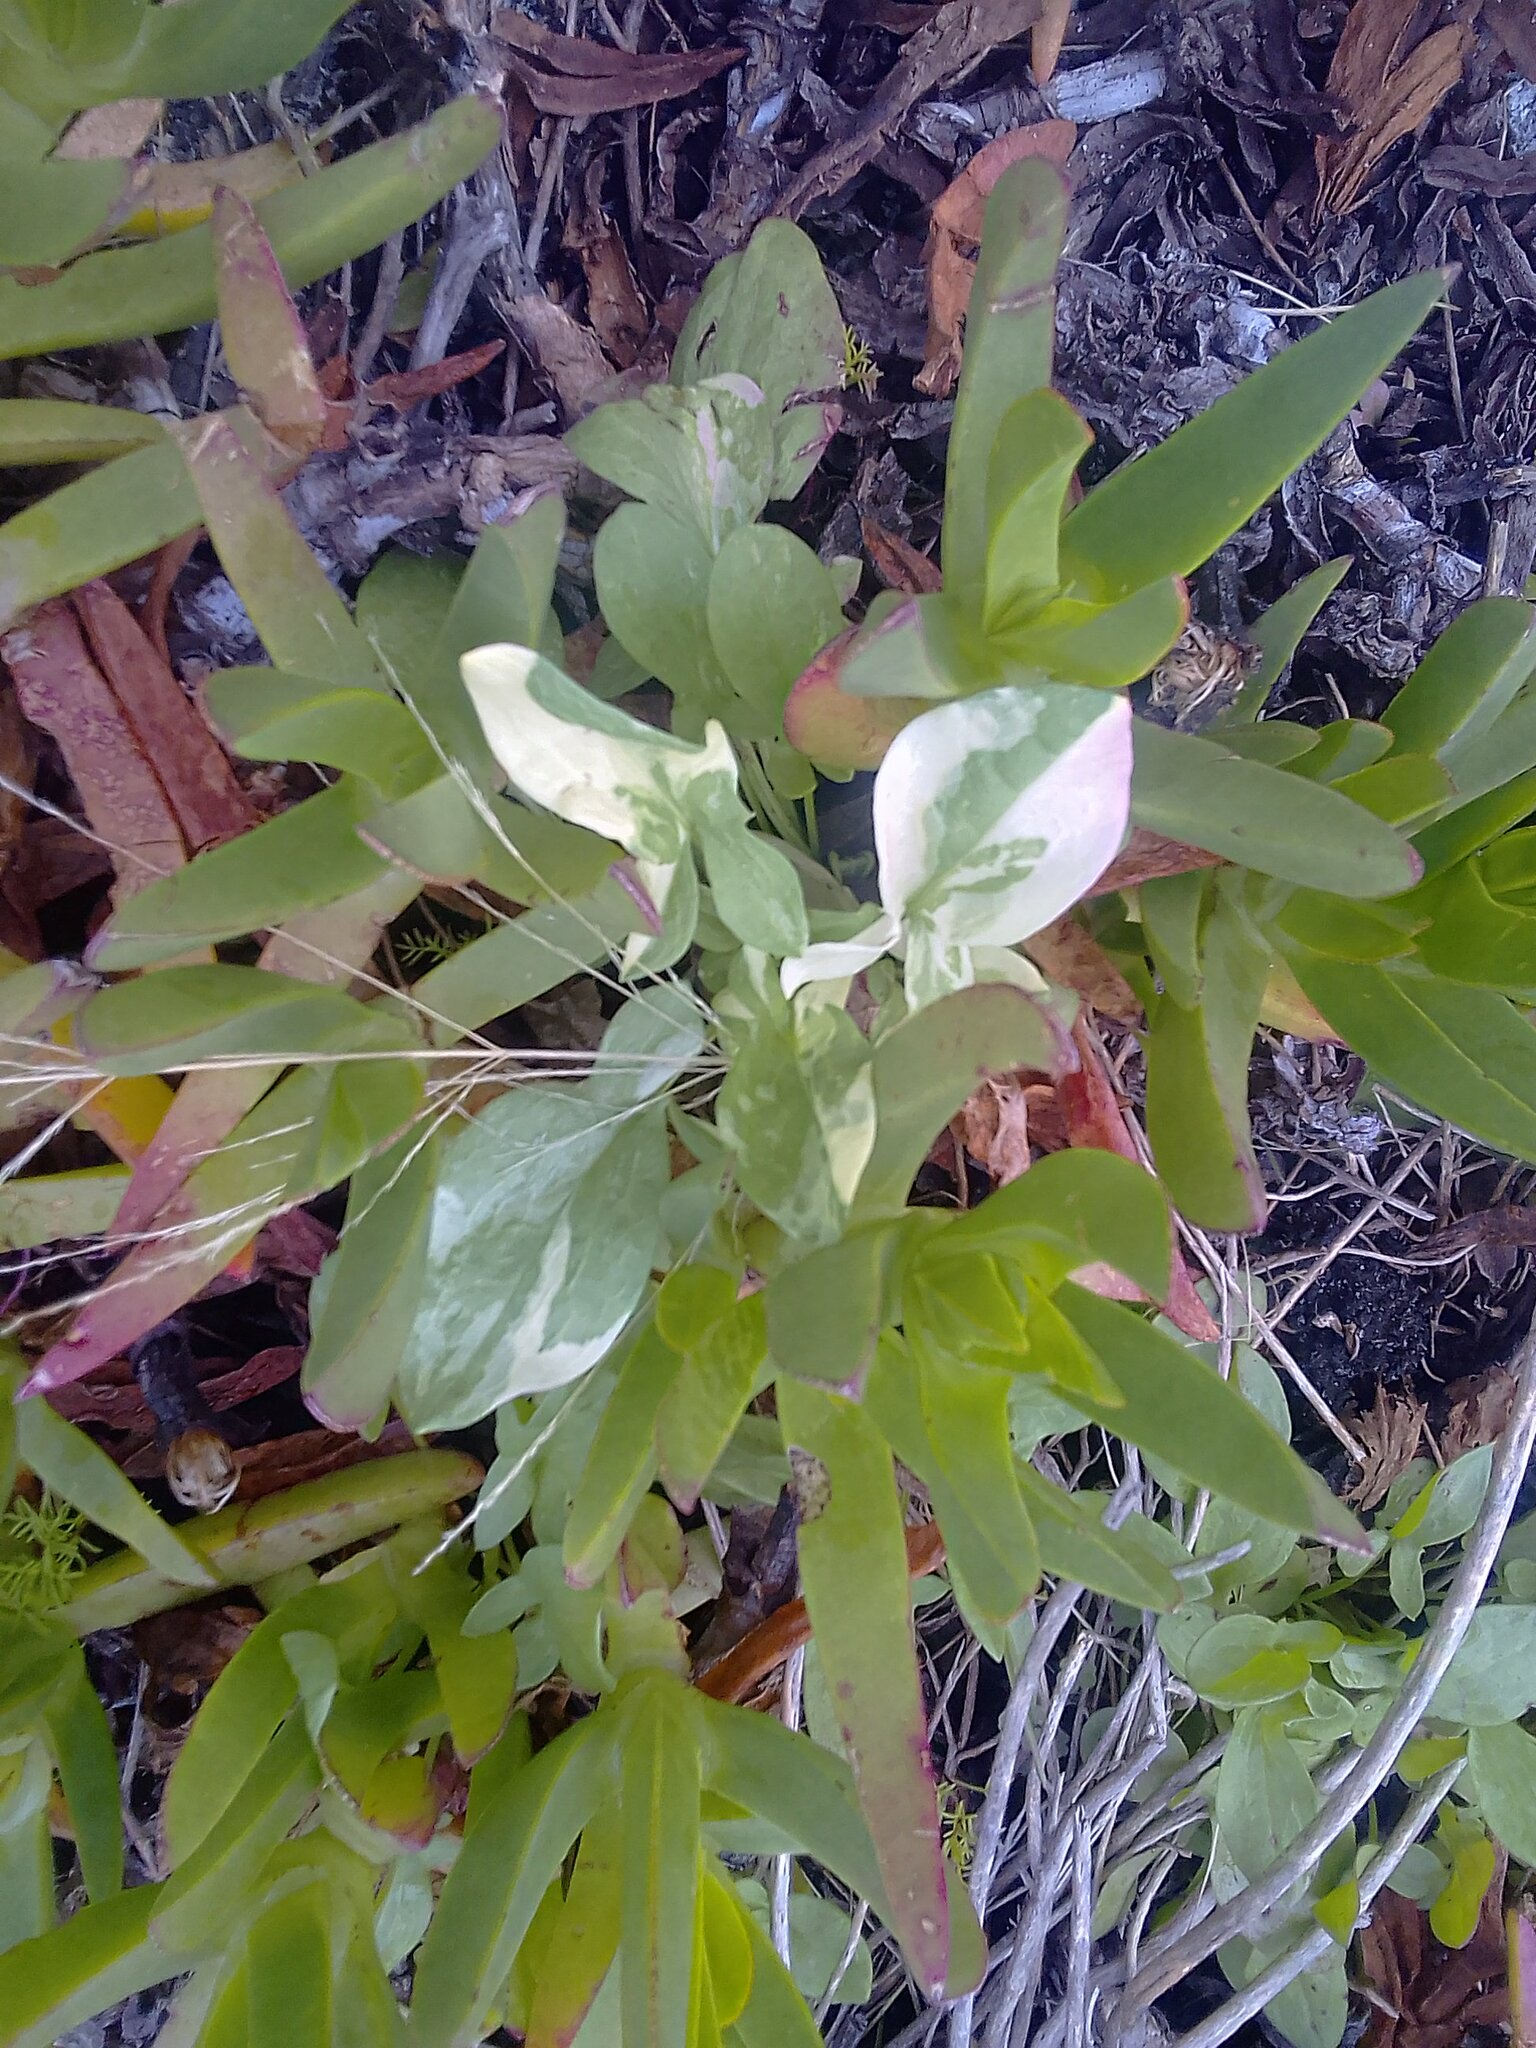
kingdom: Plantae
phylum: Tracheophyta
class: Magnoliopsida
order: Caryophyllales
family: Aizoaceae
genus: Carpobrotus
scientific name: Carpobrotus edulis
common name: Hottentot-fig
